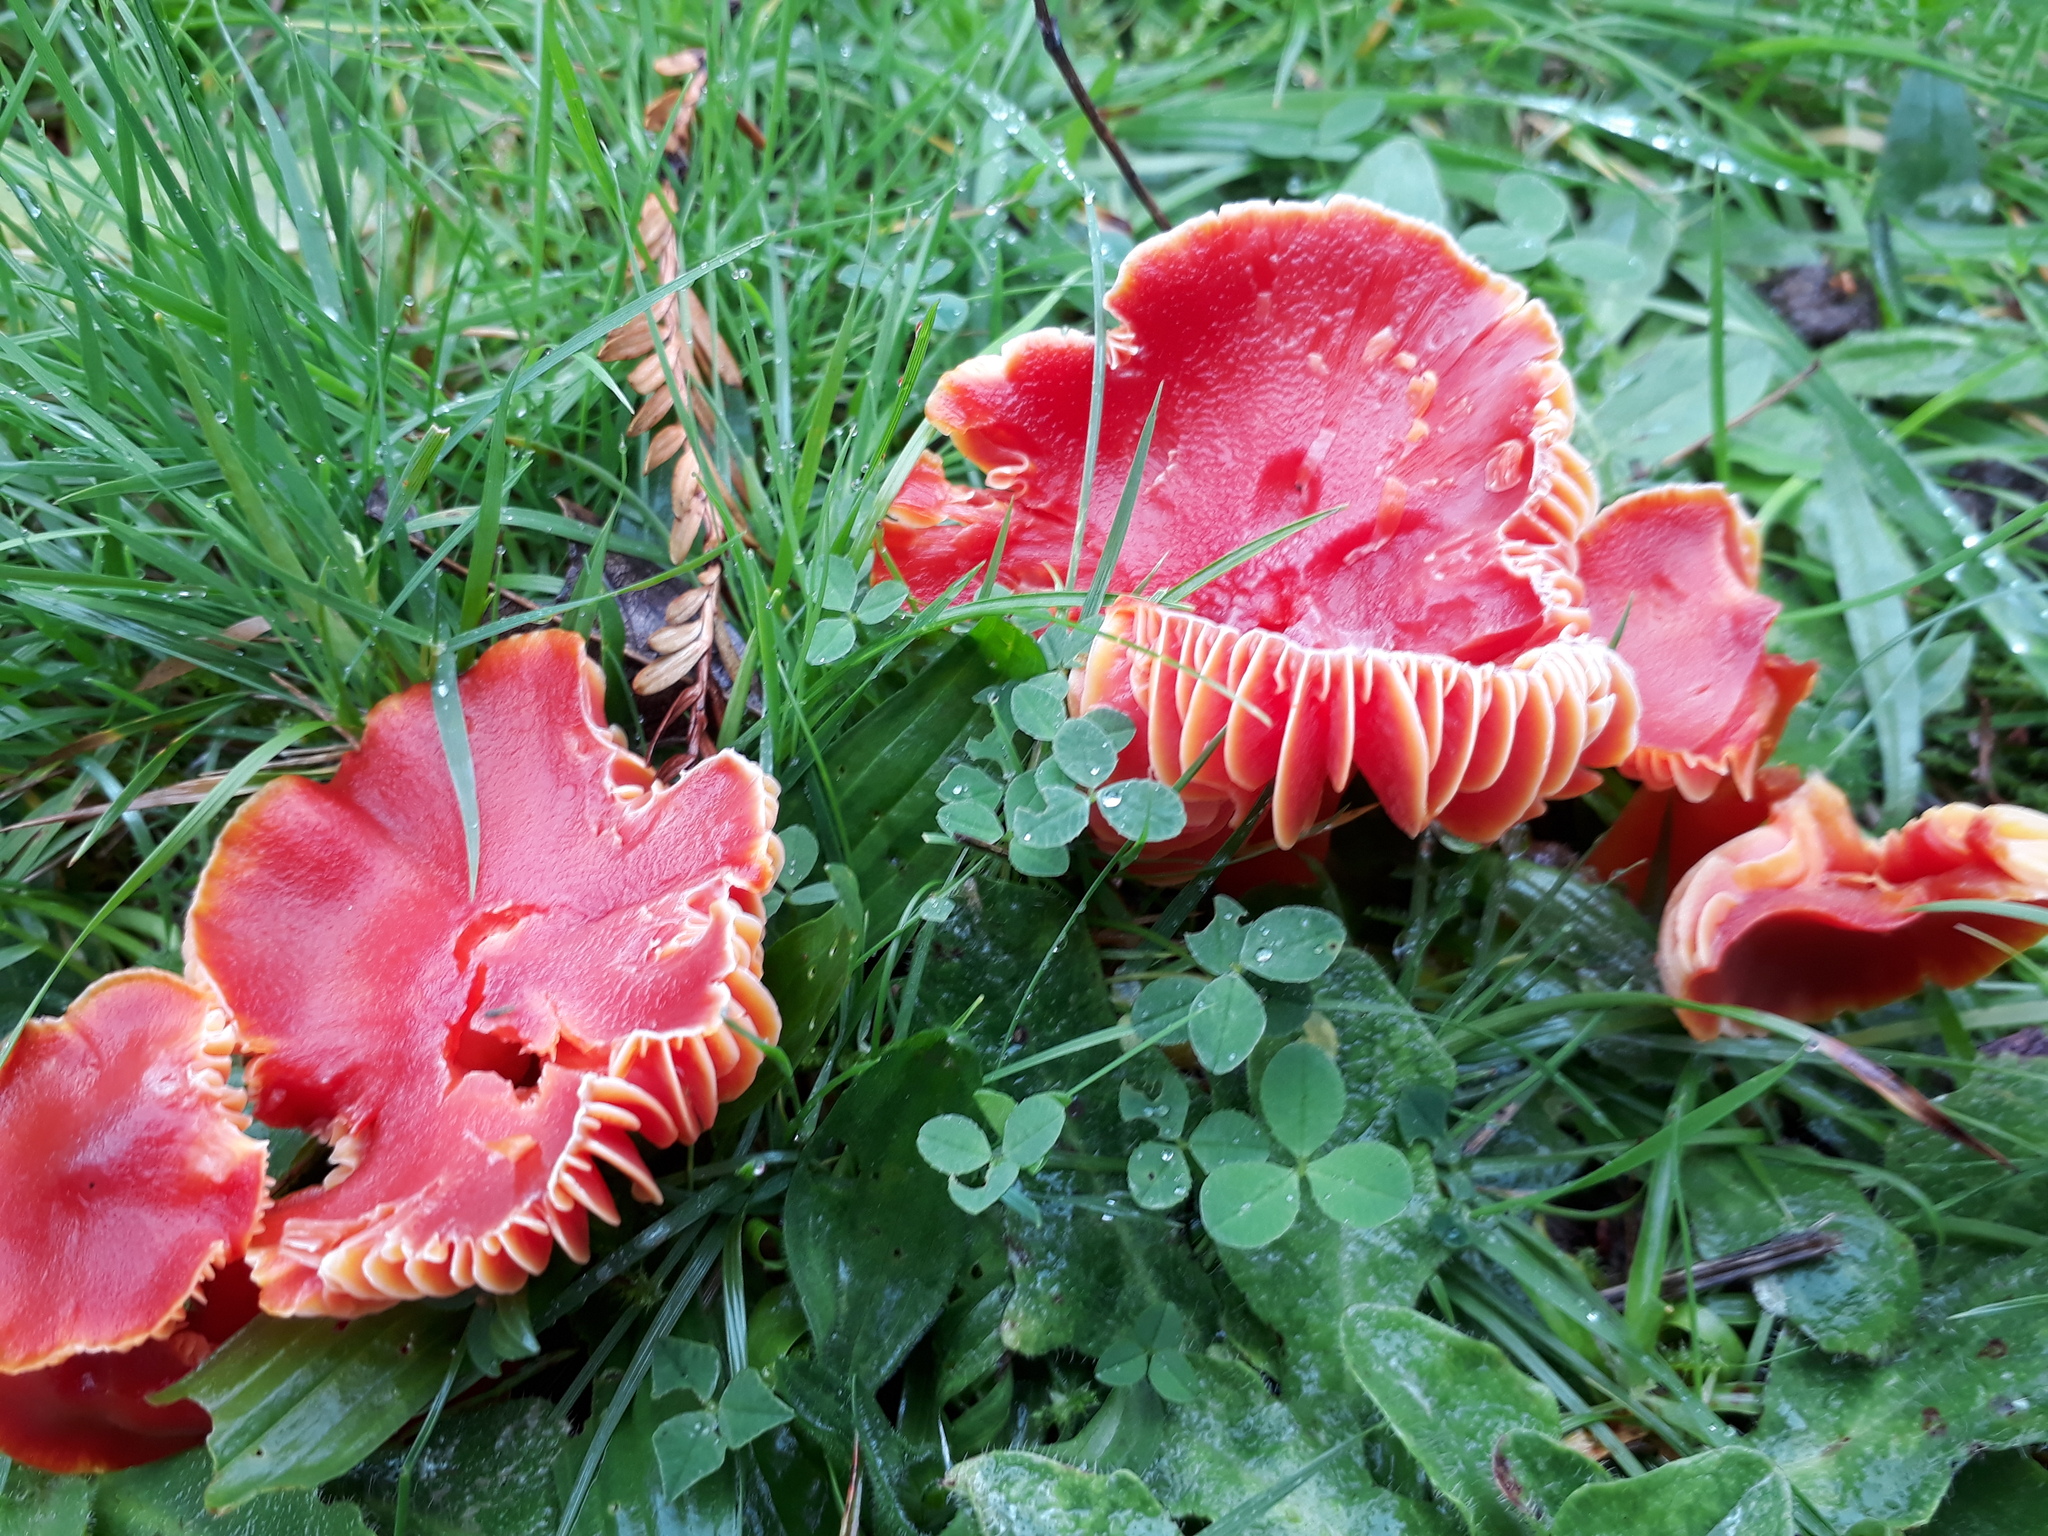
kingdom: Fungi
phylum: Basidiomycota
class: Agaricomycetes
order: Agaricales
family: Hygrophoraceae
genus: Hygrocybe
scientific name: Hygrocybe coccinea
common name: Scarlet hood
